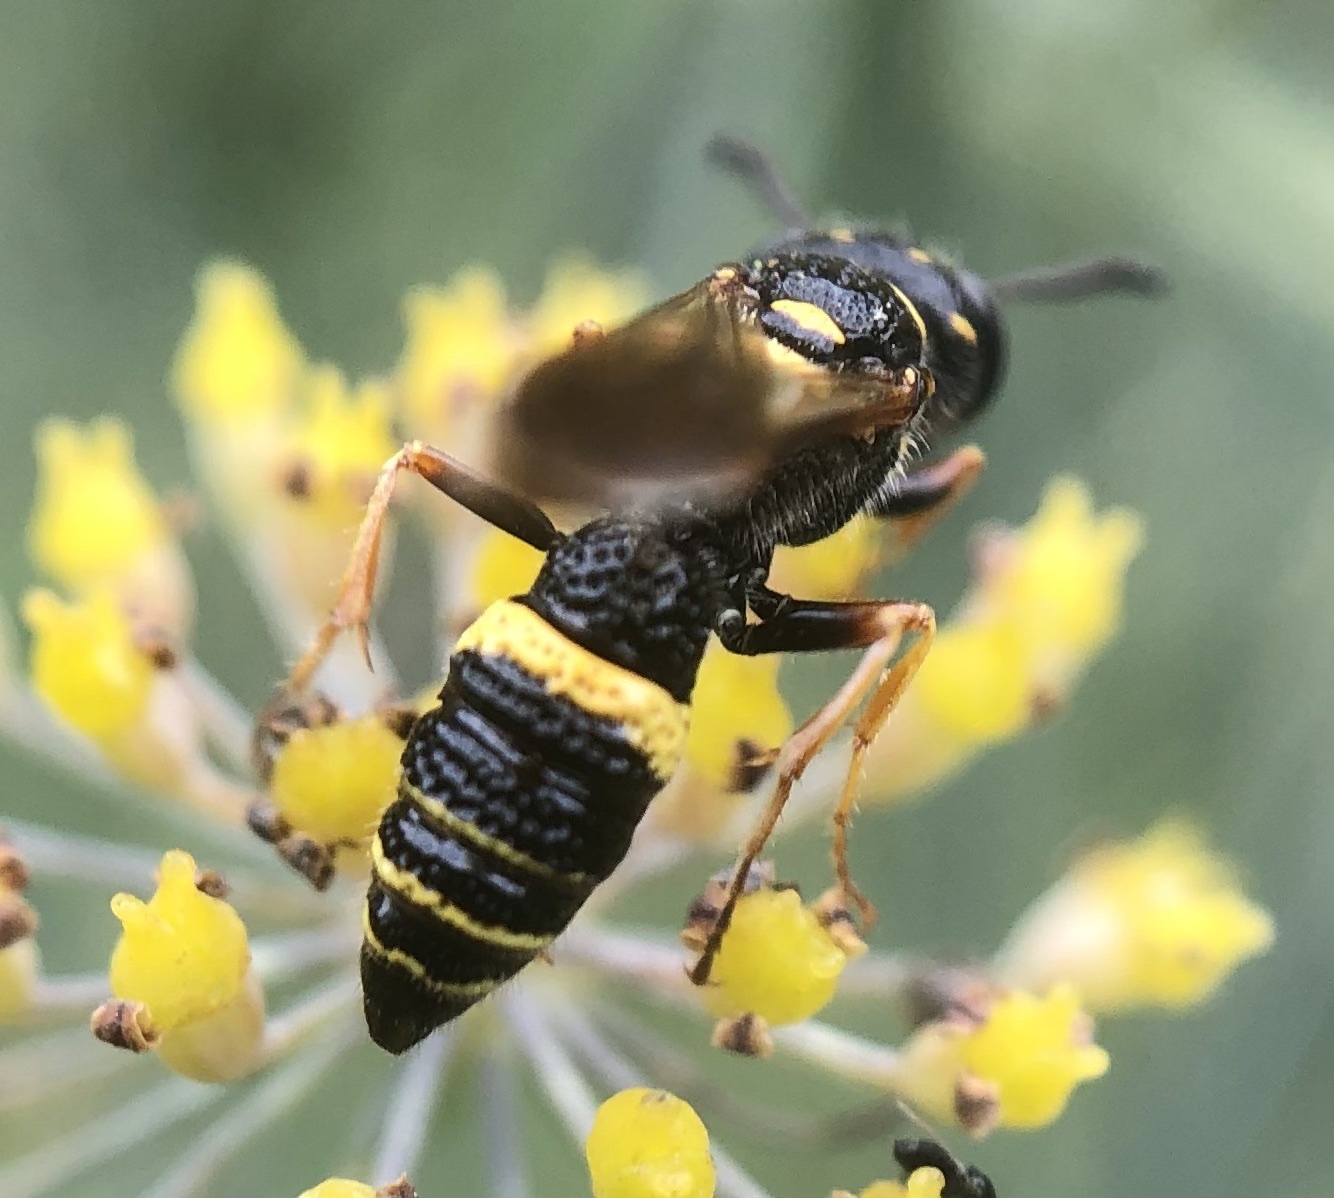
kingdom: Animalia
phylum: Arthropoda
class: Insecta
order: Hymenoptera
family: Crabronidae
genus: Philanthus
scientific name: Philanthus gibbosus
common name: Humped beewolf
